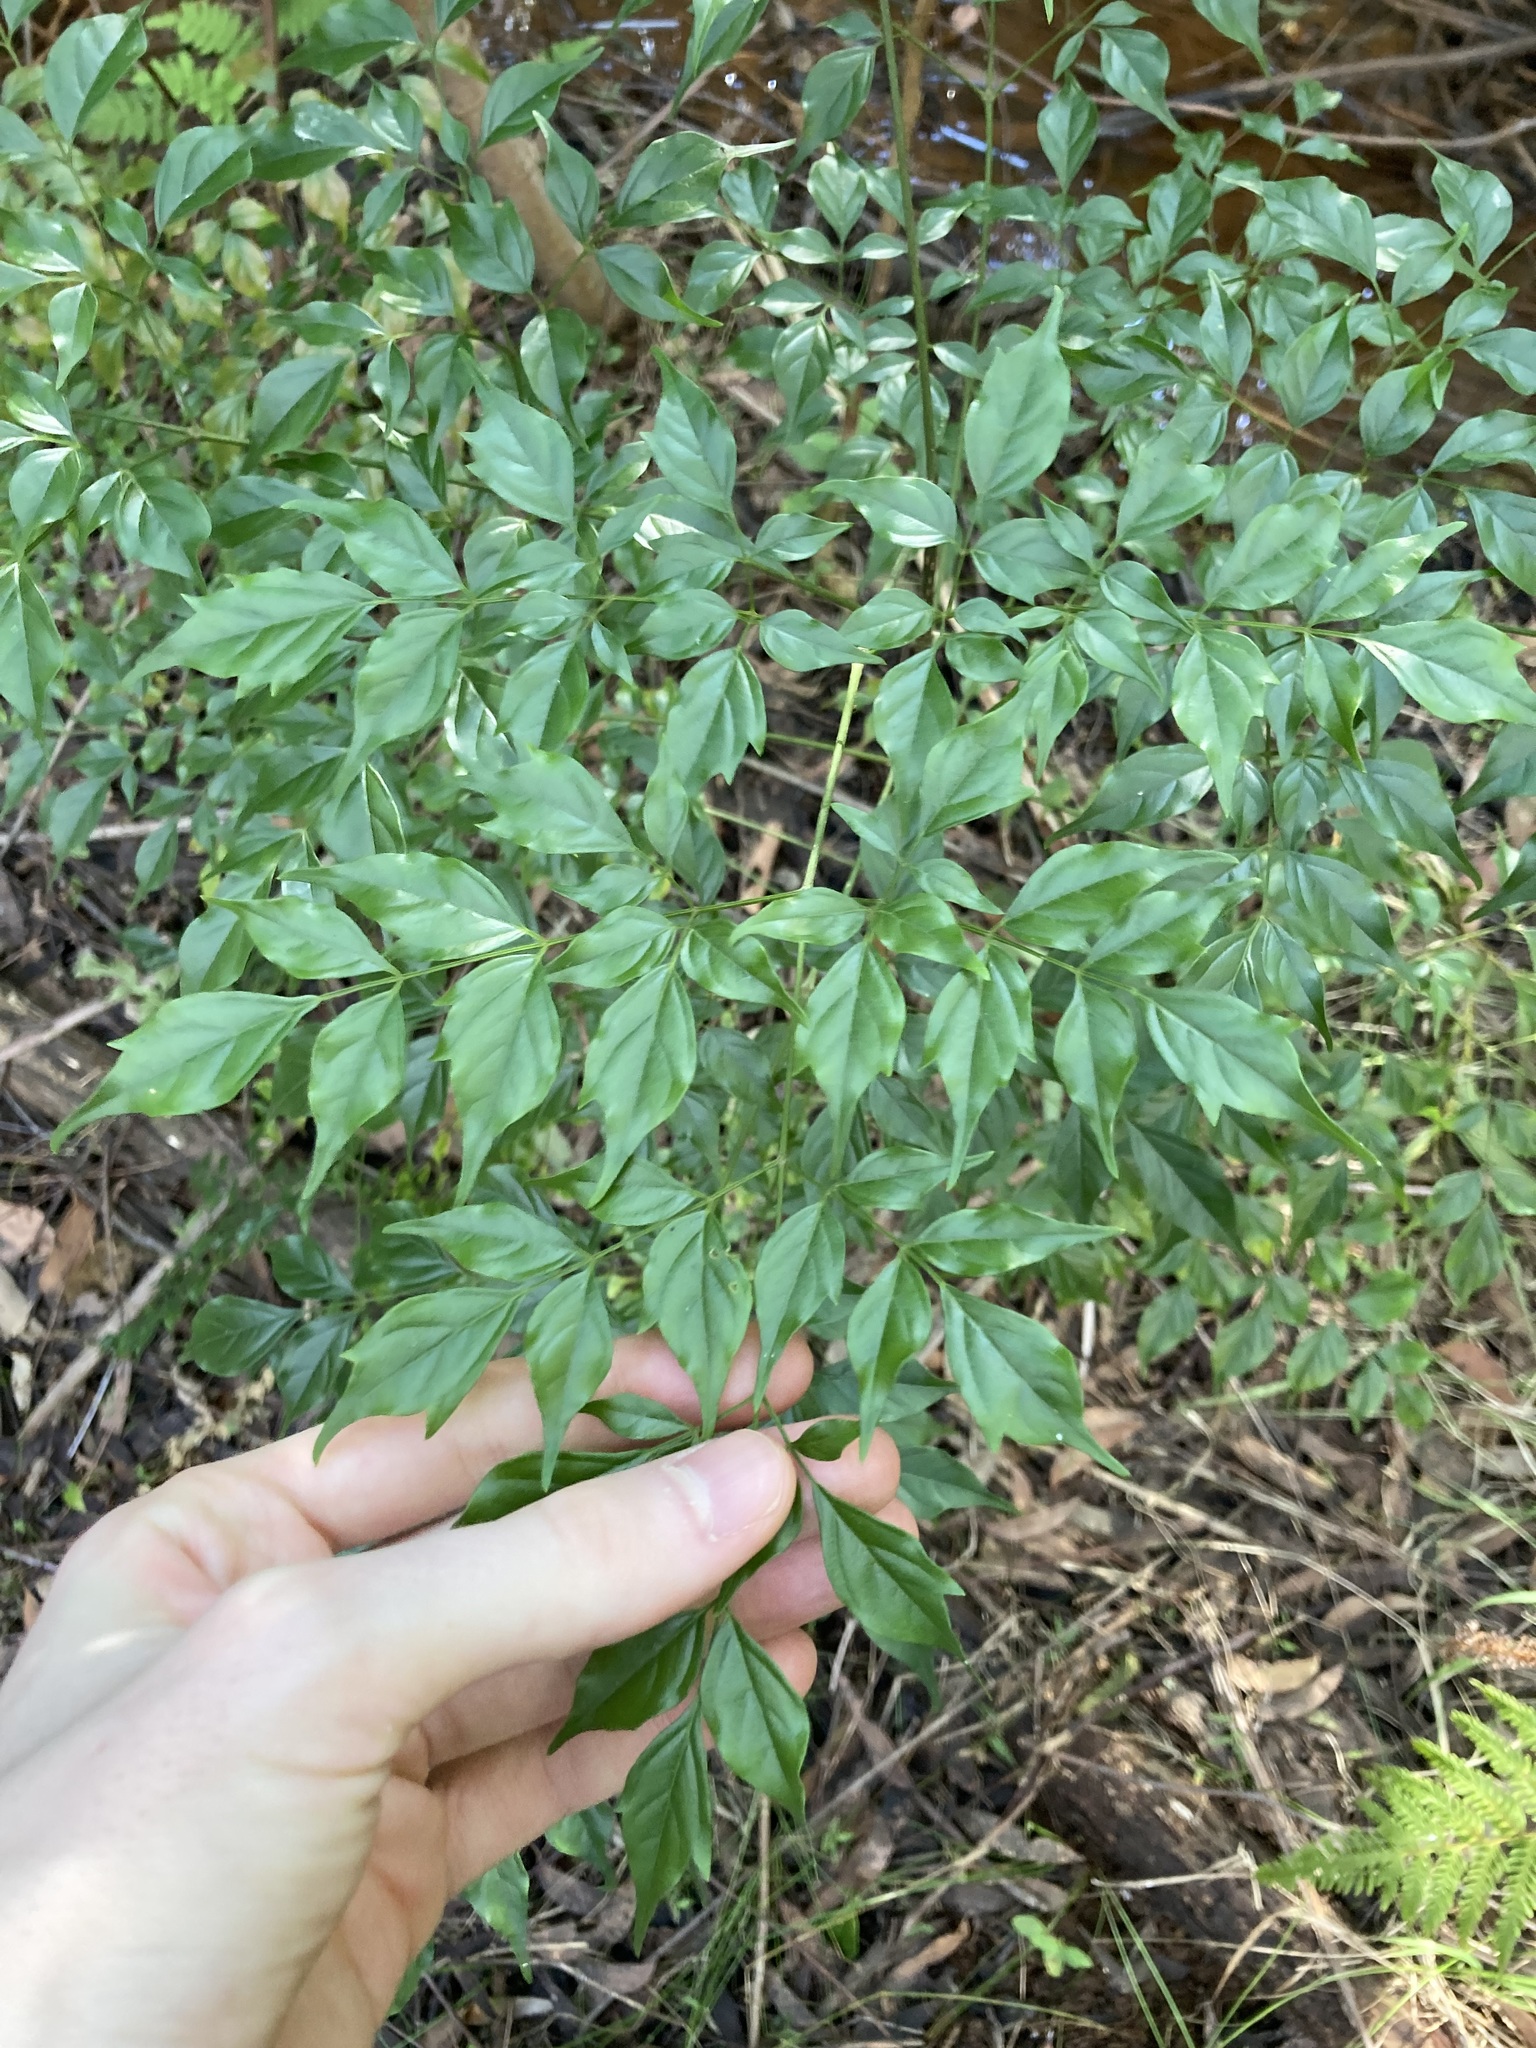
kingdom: Plantae
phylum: Tracheophyta
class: Magnoliopsida
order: Lamiales
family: Bignoniaceae
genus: Radermachera
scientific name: Radermachera sinica
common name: China doll plant
